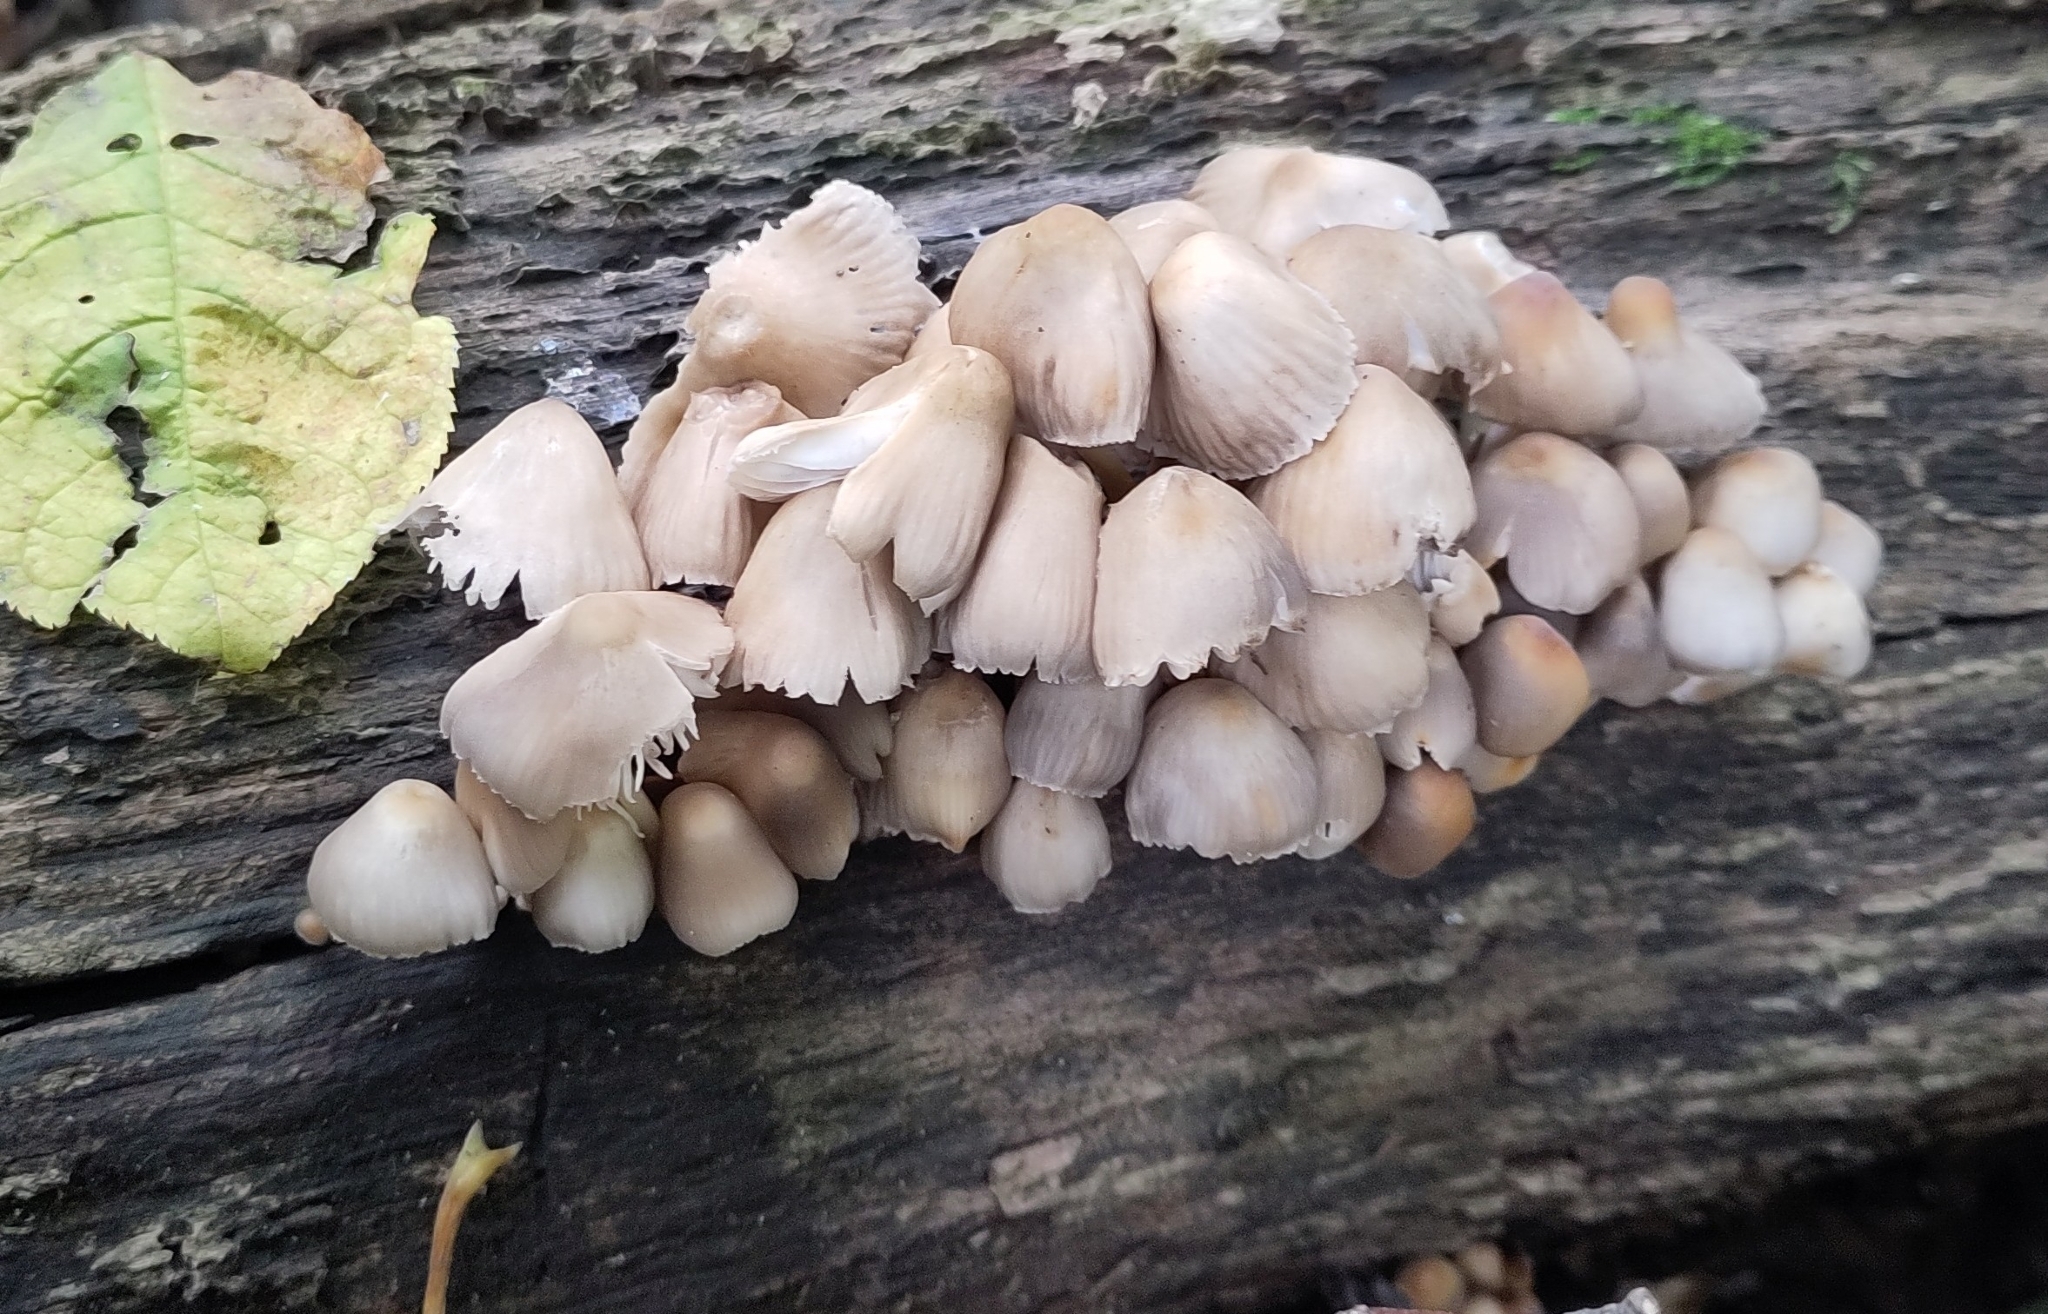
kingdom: Fungi
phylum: Basidiomycota
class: Agaricomycetes
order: Agaricales
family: Mycenaceae
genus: Mycena
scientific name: Mycena inclinata
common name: Clustered bonnet
